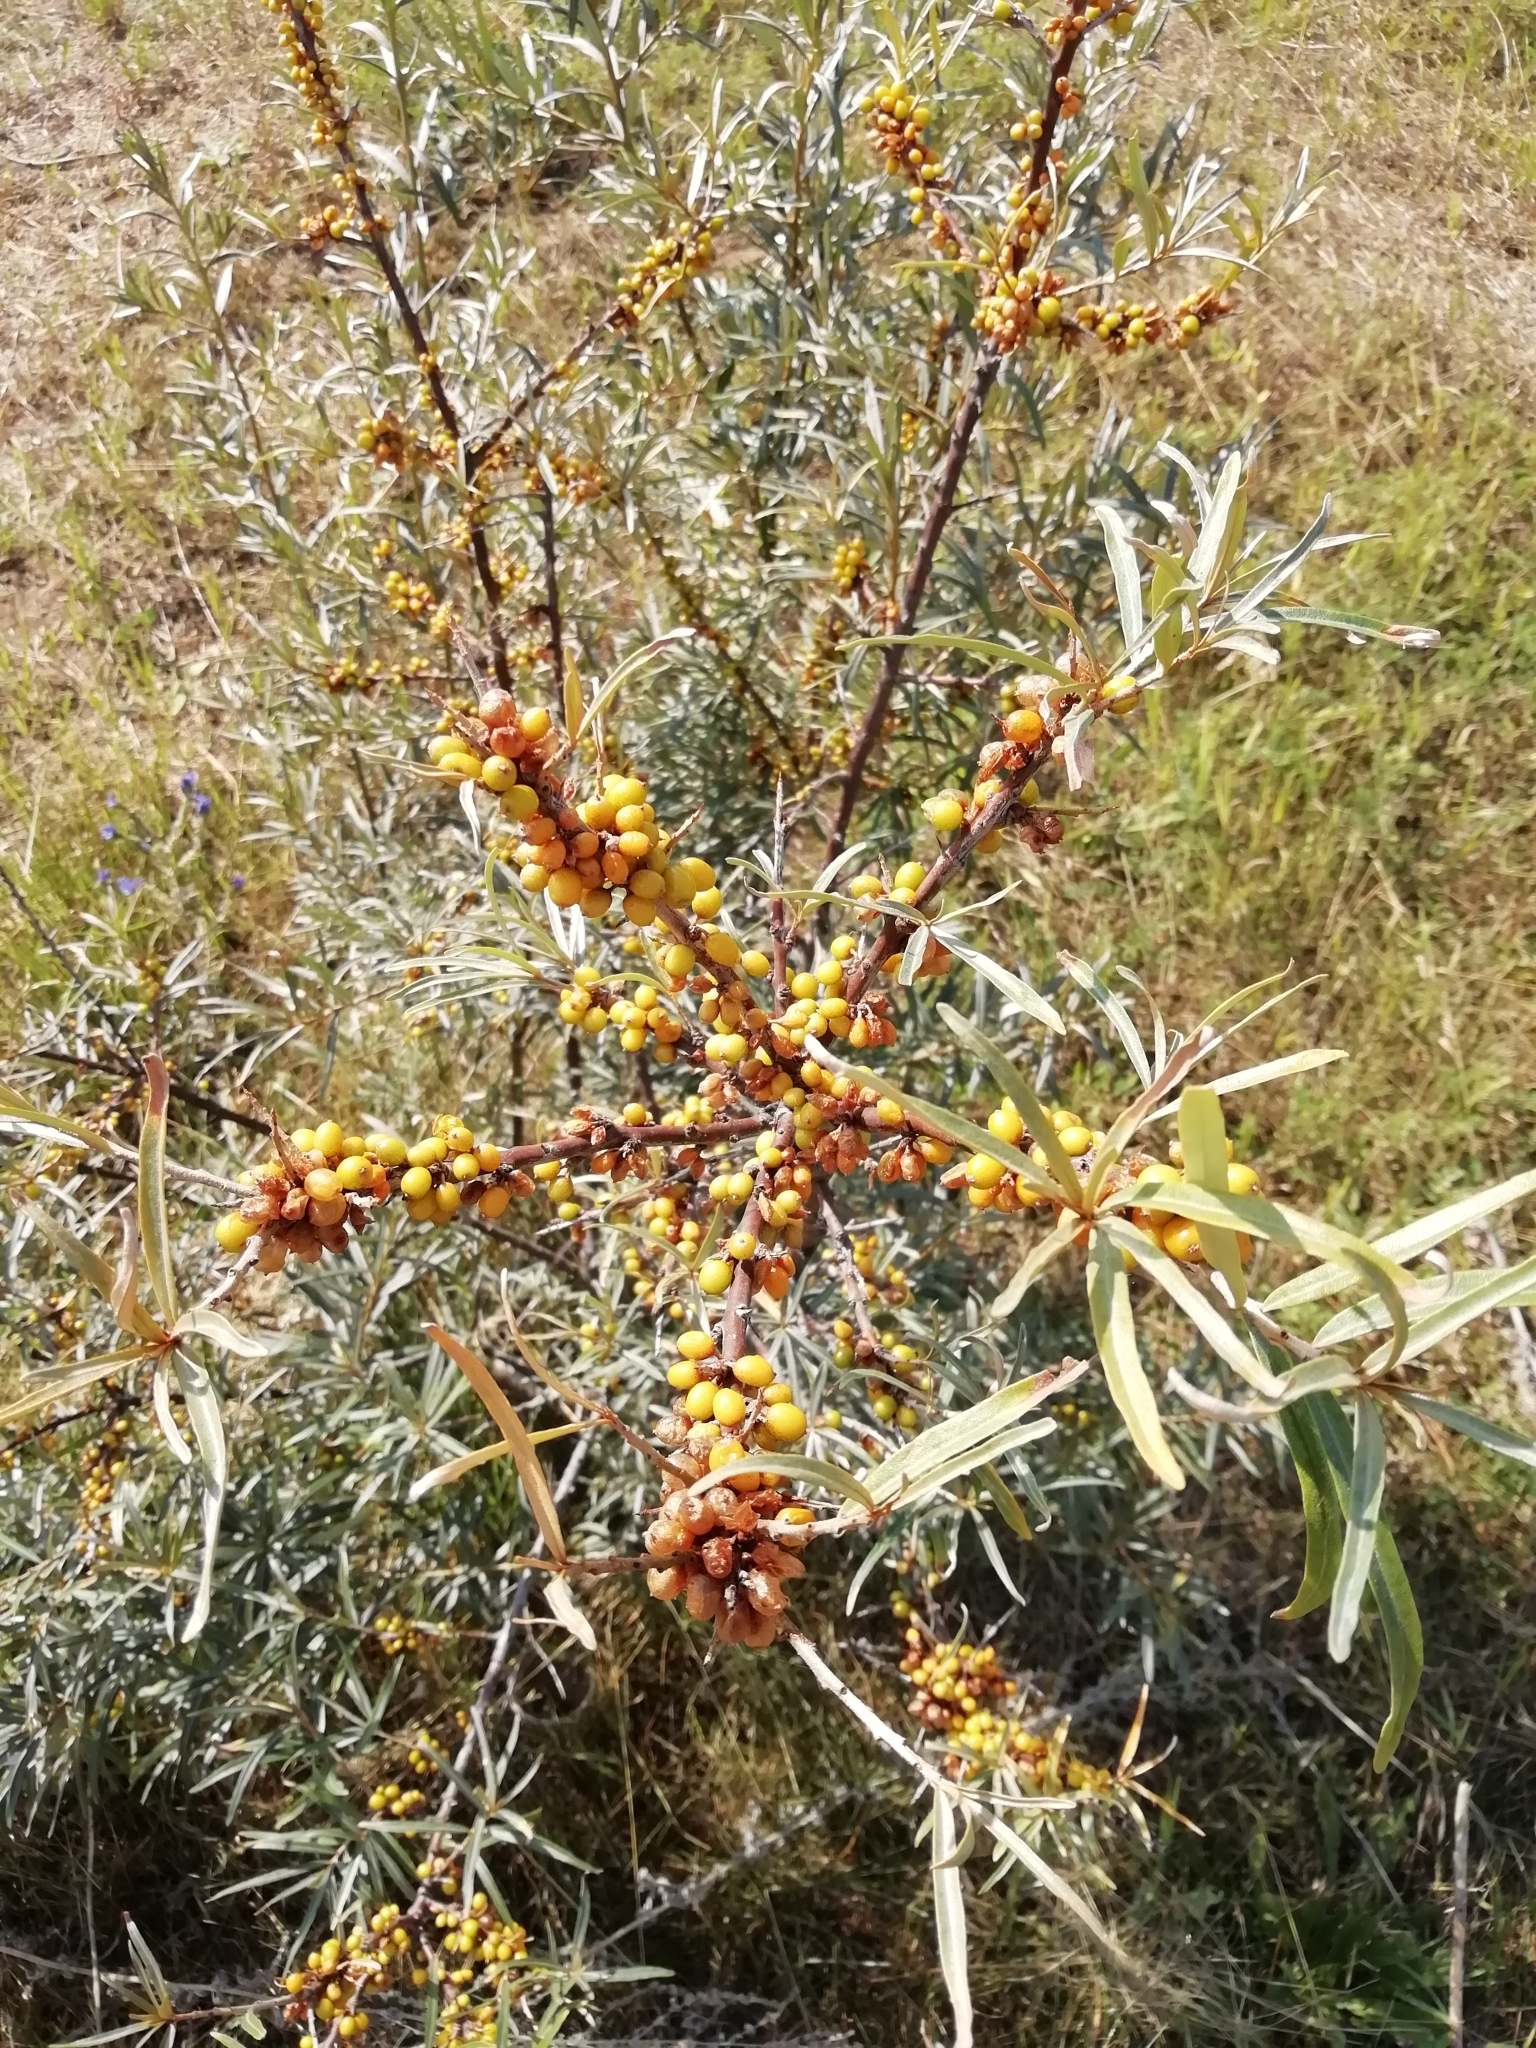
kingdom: Plantae
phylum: Tracheophyta
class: Magnoliopsida
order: Rosales
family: Elaeagnaceae
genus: Hippophae
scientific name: Hippophae rhamnoides
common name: Sea-buckthorn
